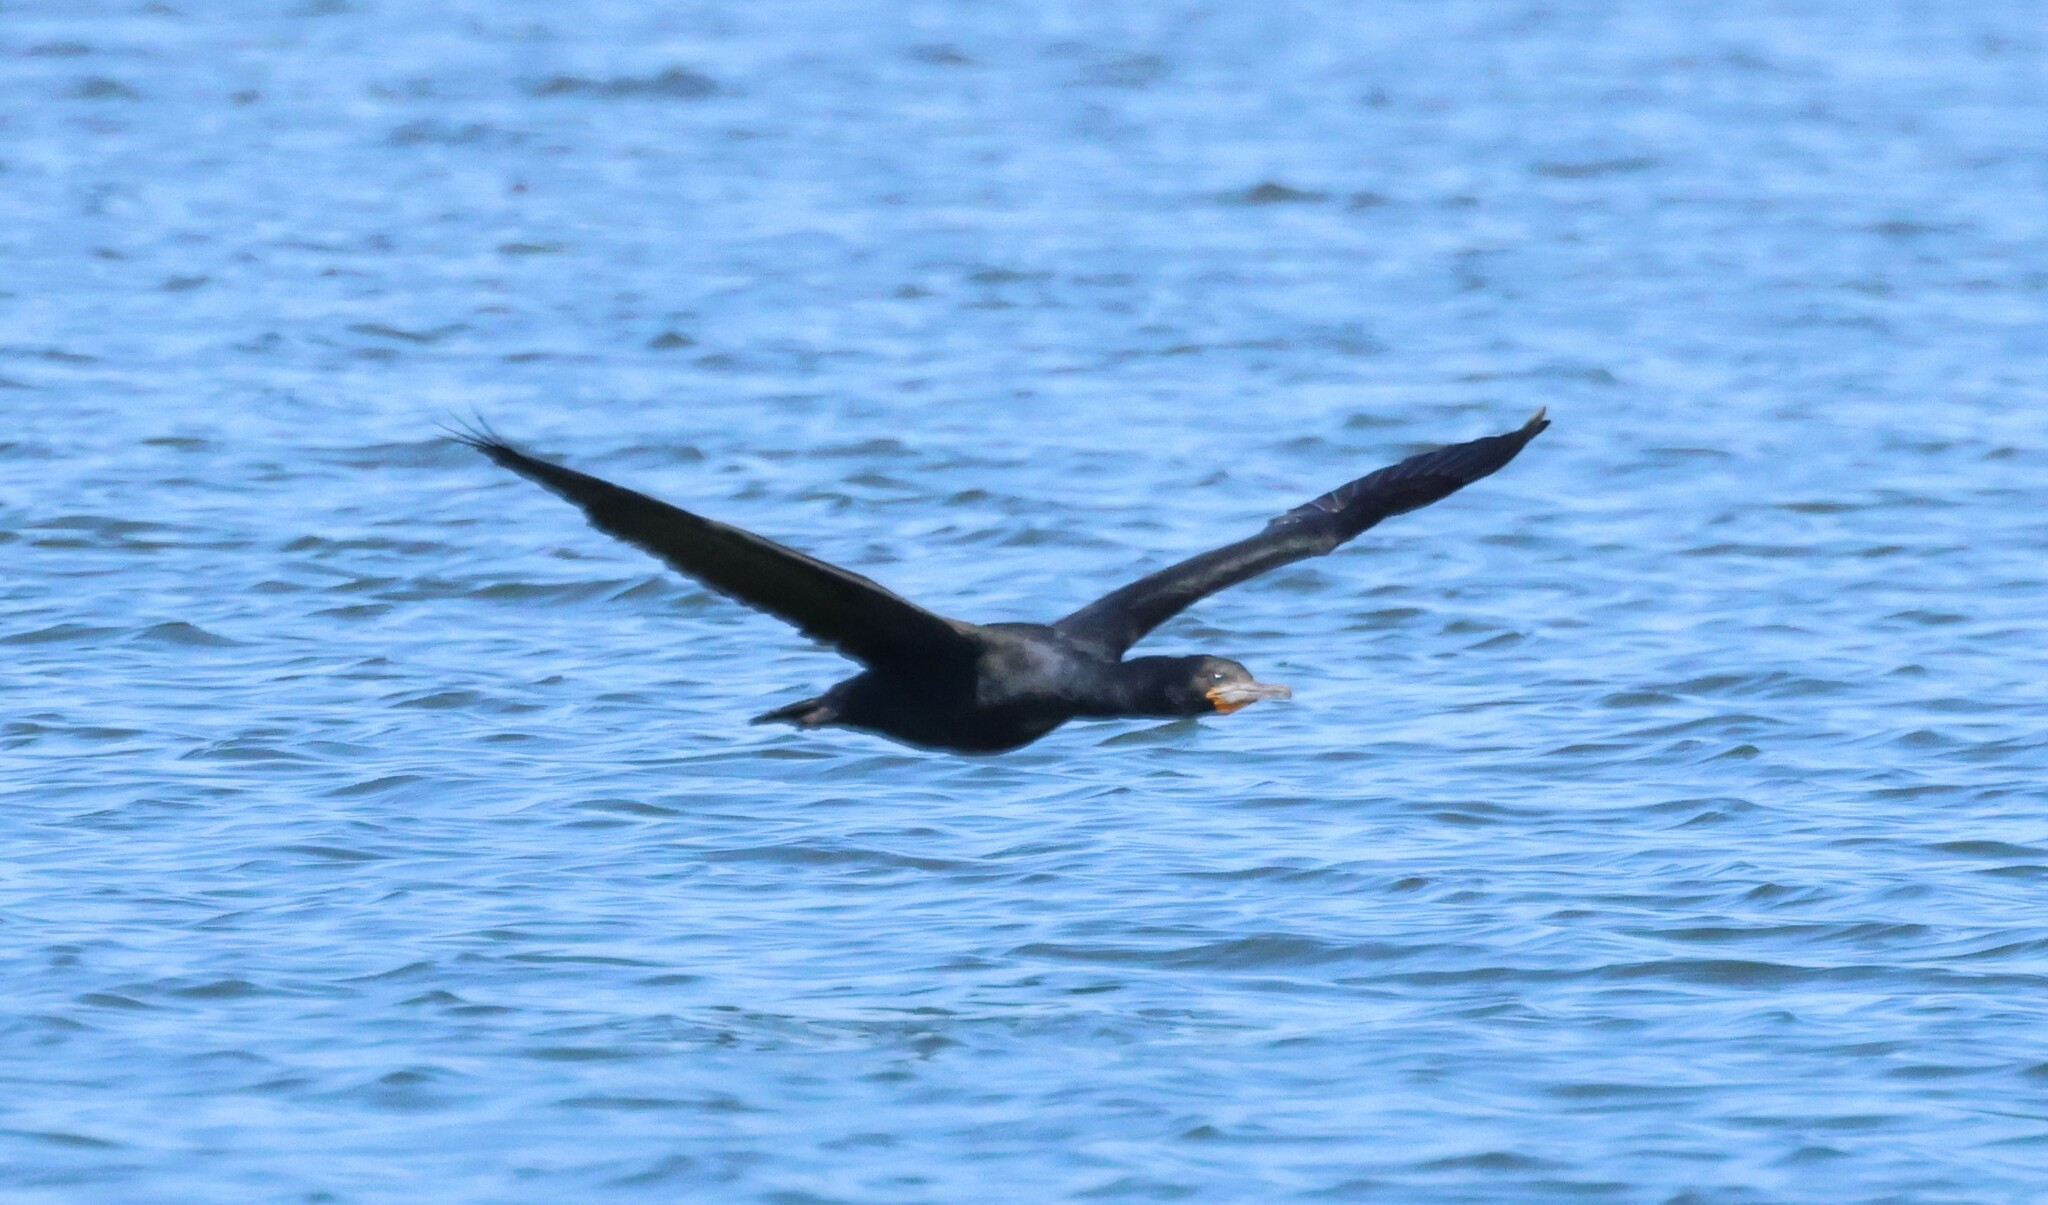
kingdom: Animalia
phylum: Chordata
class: Aves
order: Suliformes
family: Phalacrocoracidae
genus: Phalacrocorax
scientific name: Phalacrocorax capensis
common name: Cape cormorant
